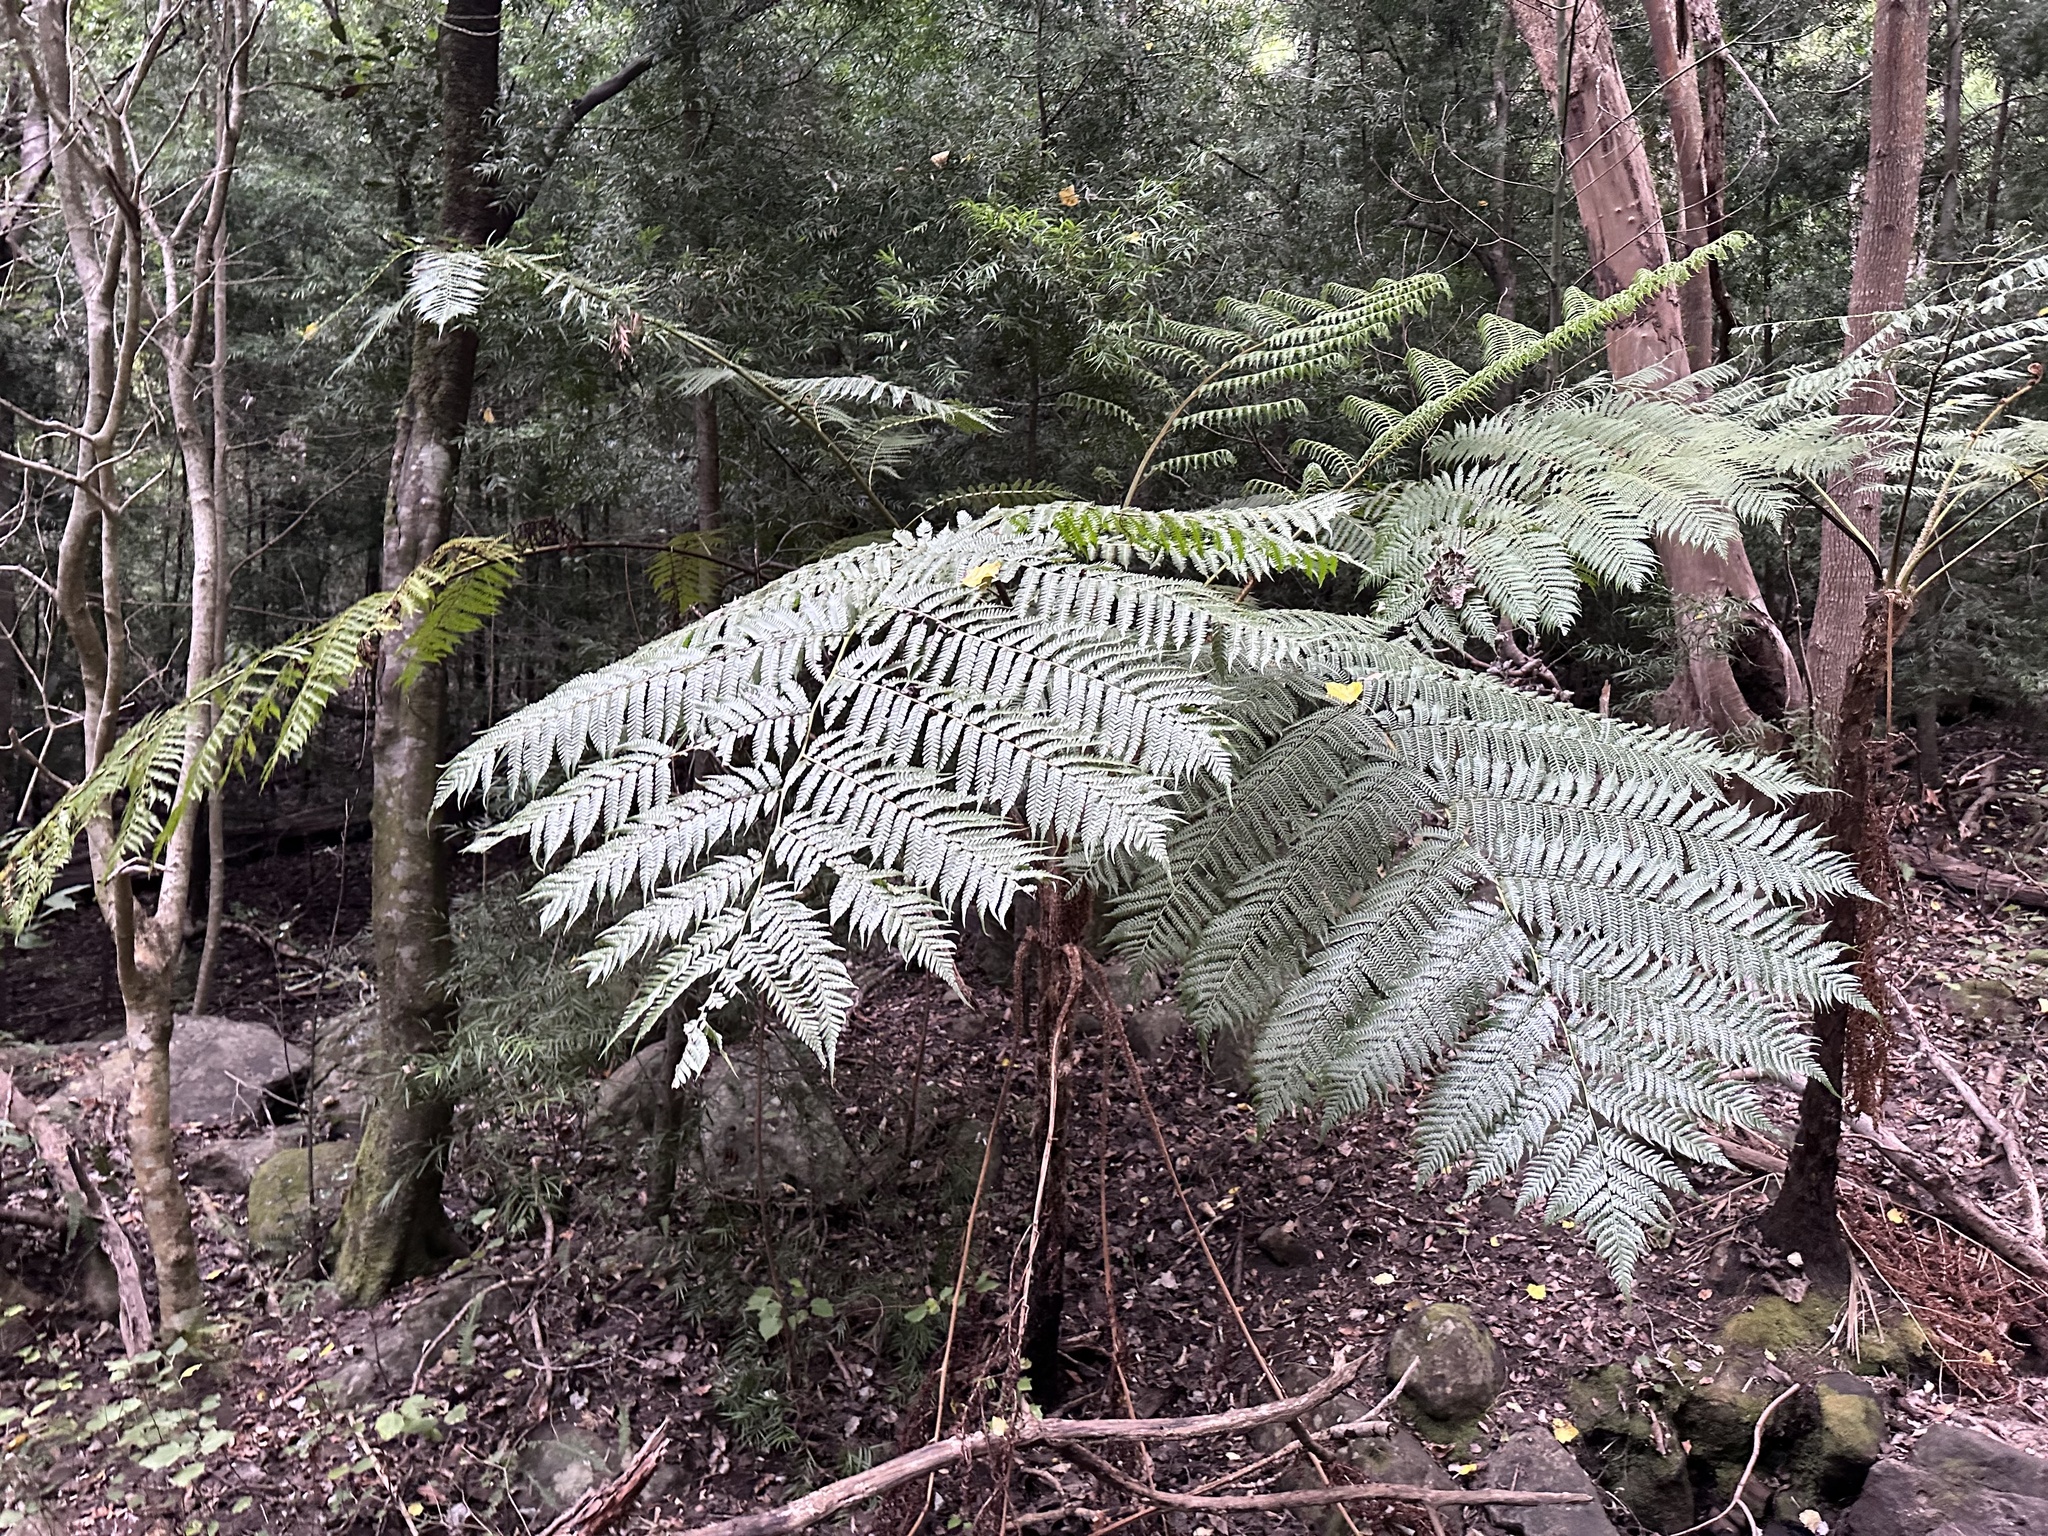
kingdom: Plantae
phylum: Tracheophyta
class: Polypodiopsida
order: Cyatheales
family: Cyatheaceae
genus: Sphaeropteris
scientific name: Sphaeropteris cooperi
